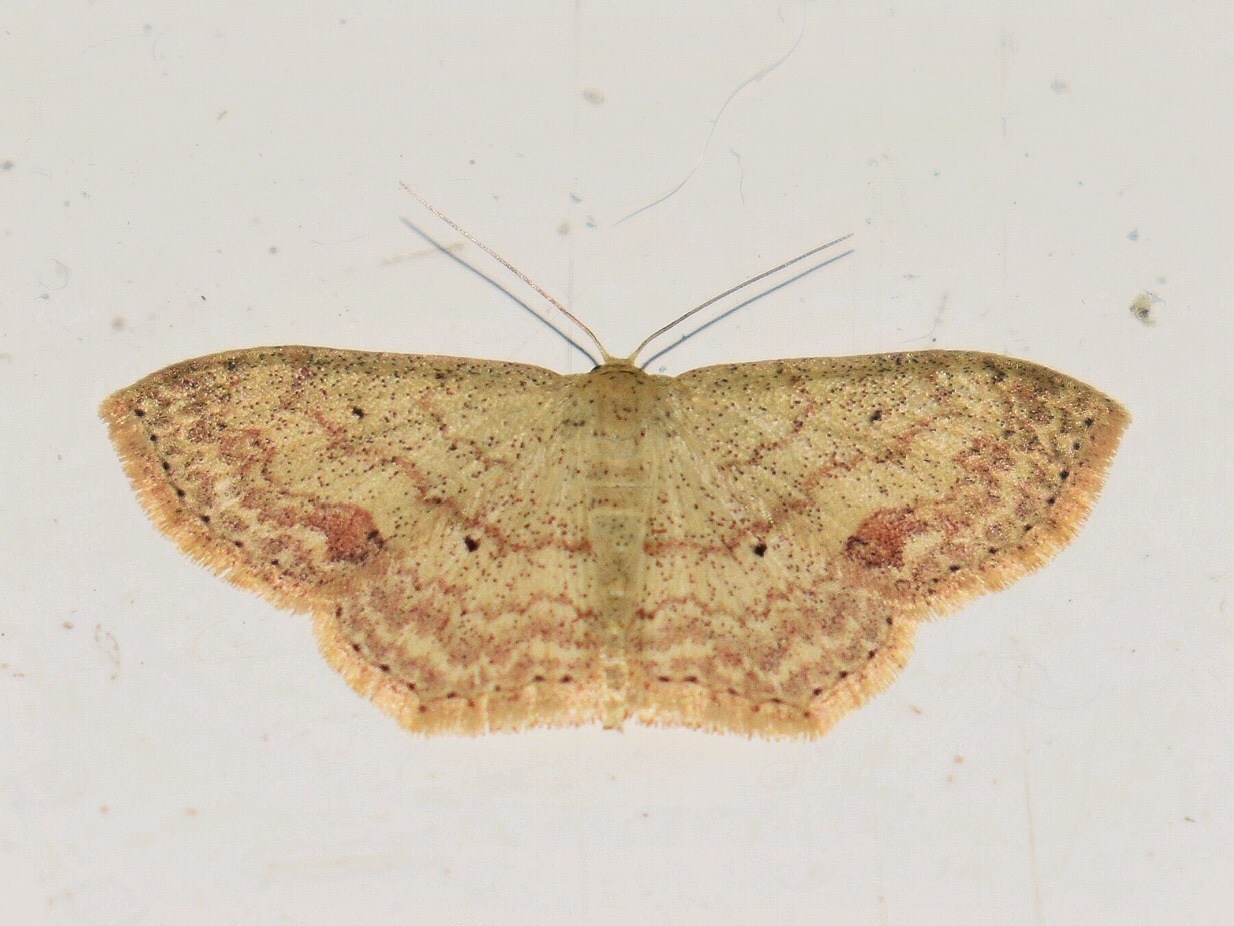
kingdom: Animalia
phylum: Arthropoda
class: Insecta
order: Lepidoptera
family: Geometridae
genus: Scopula
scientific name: Scopula internata
